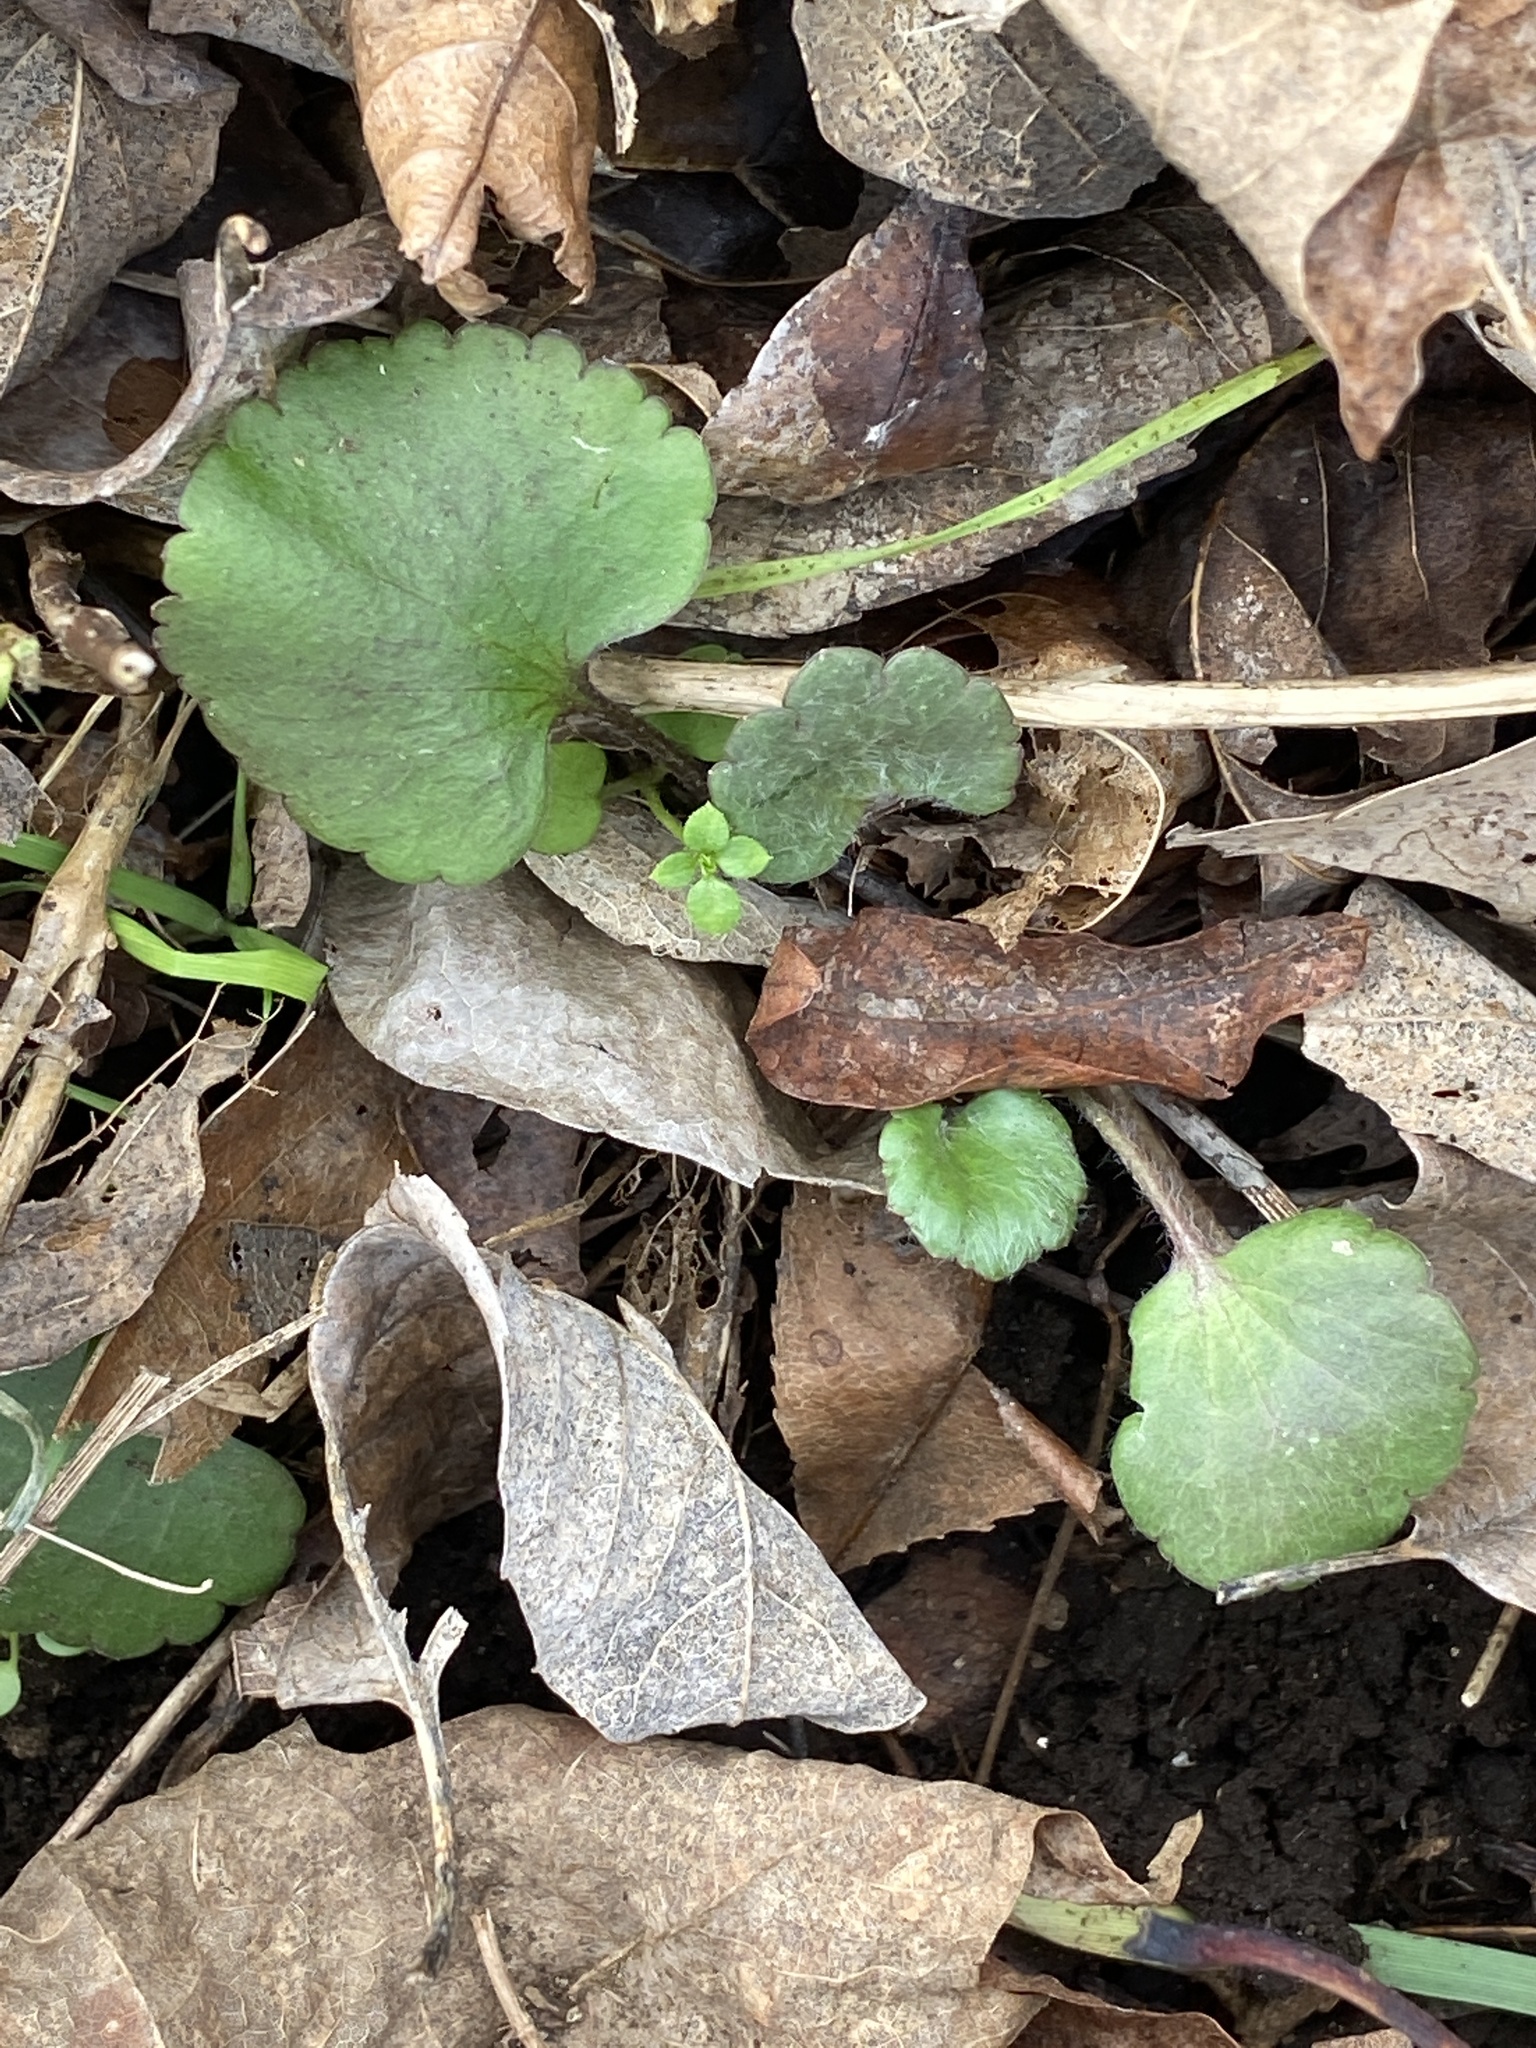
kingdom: Plantae
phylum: Tracheophyta
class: Magnoliopsida
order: Ranunculales
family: Ranunculaceae
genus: Ranunculus
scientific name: Ranunculus abortivus
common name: Early wood buttercup
